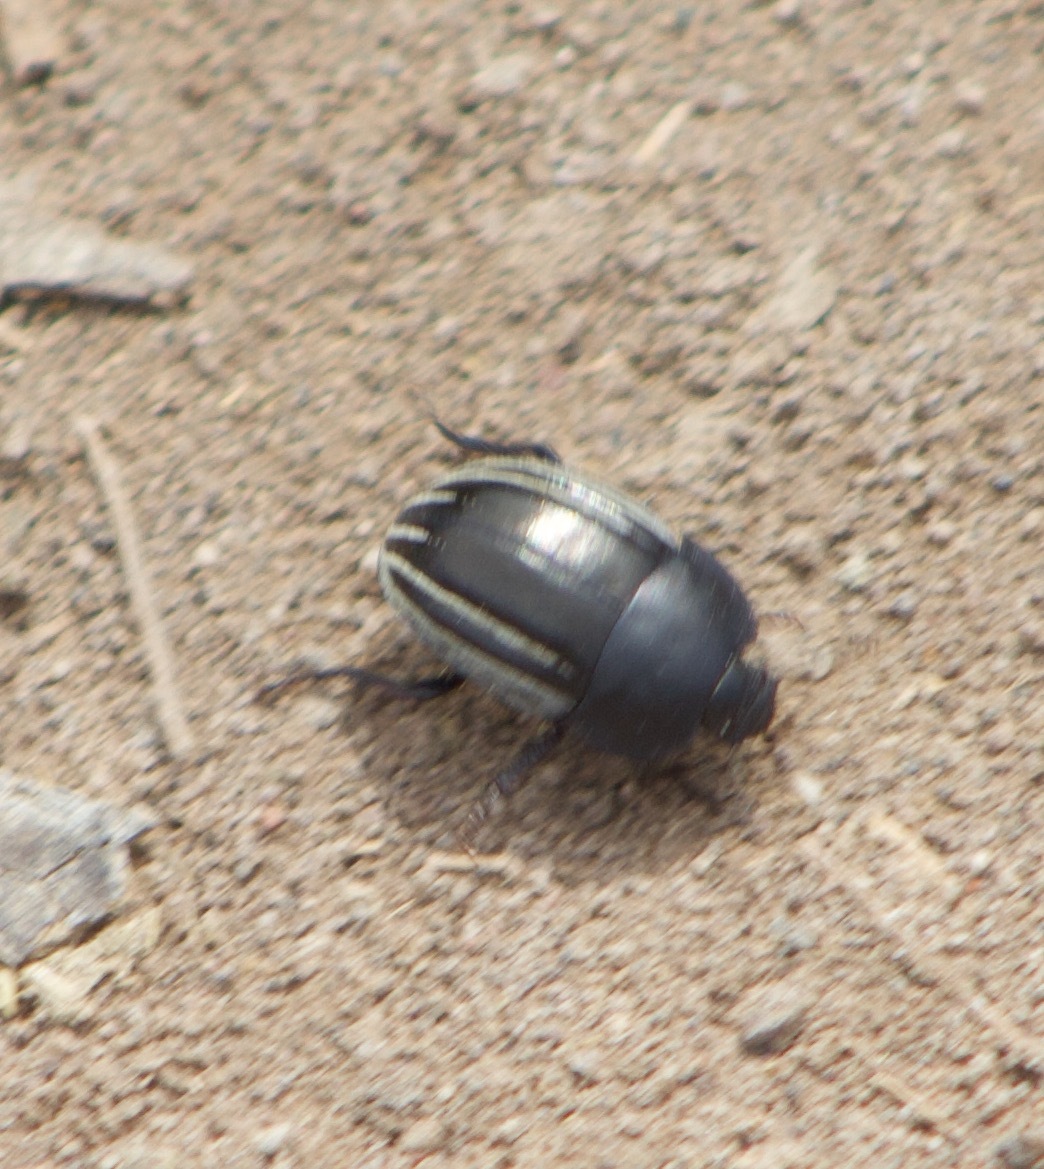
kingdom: Animalia
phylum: Arthropoda
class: Insecta
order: Coleoptera
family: Tenebrionidae
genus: Praocis
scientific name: Praocis spinolai
